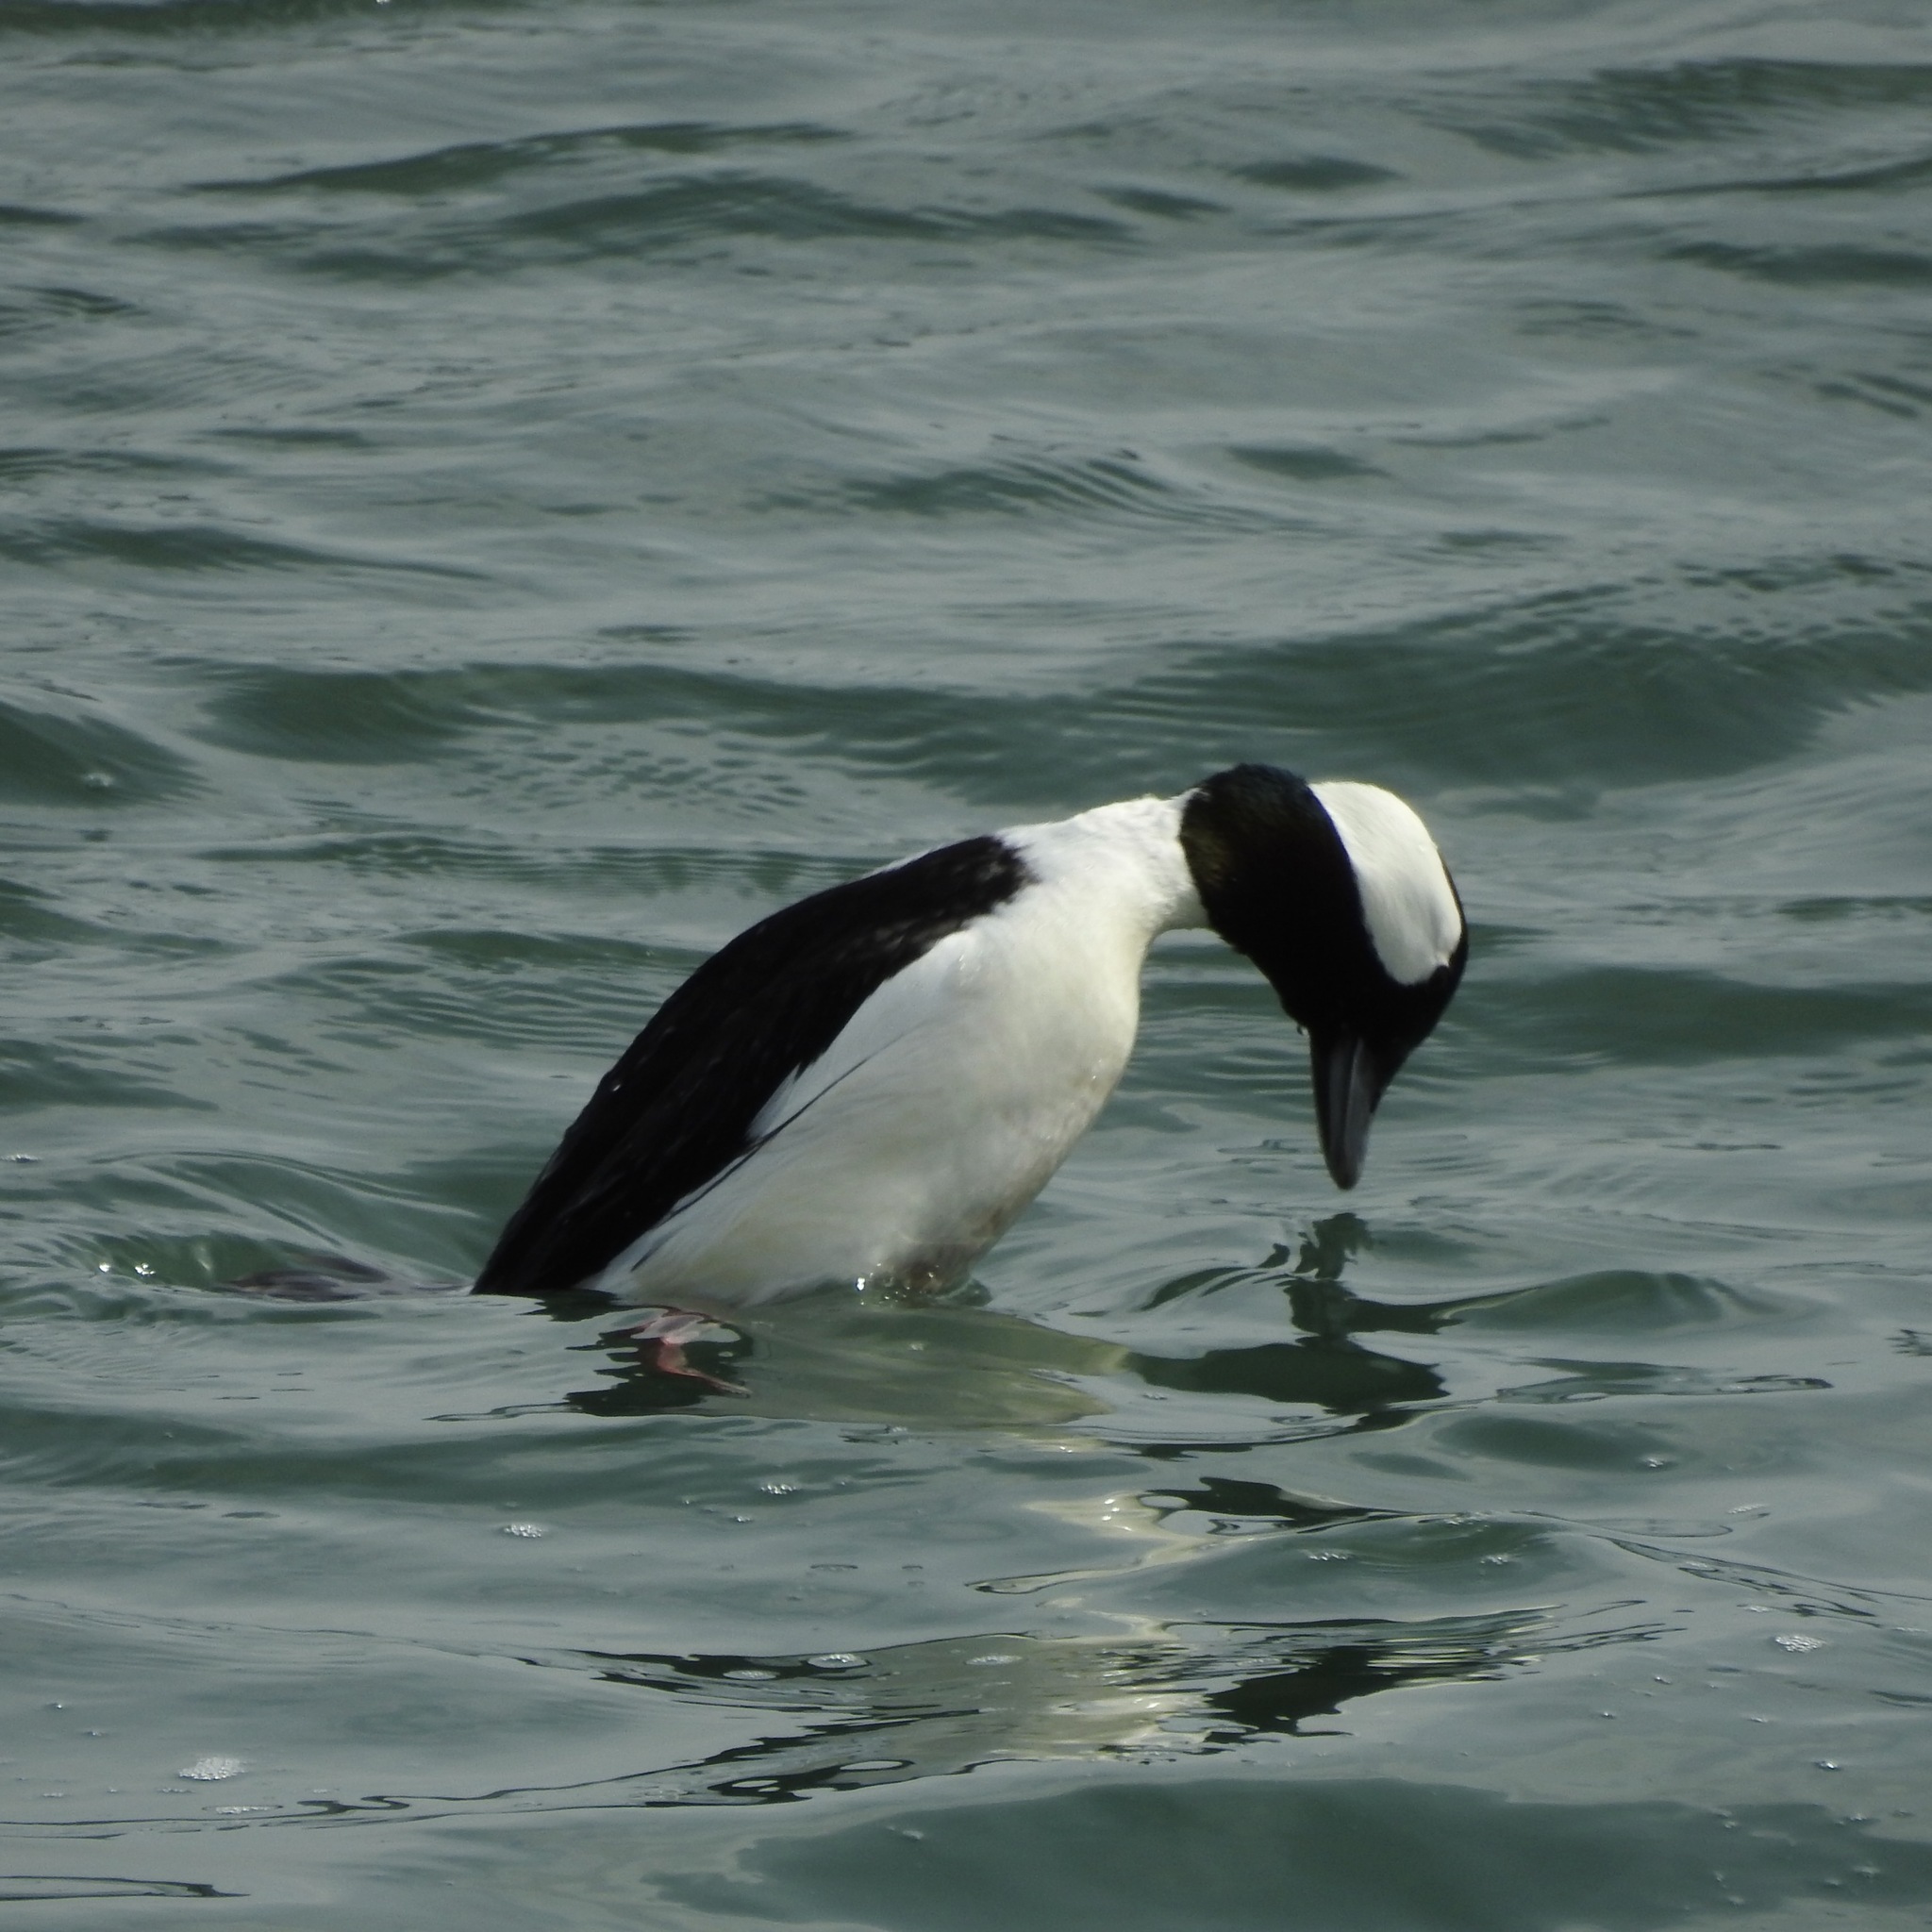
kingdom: Animalia
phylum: Chordata
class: Aves
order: Anseriformes
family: Anatidae
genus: Bucephala
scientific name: Bucephala albeola
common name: Bufflehead
